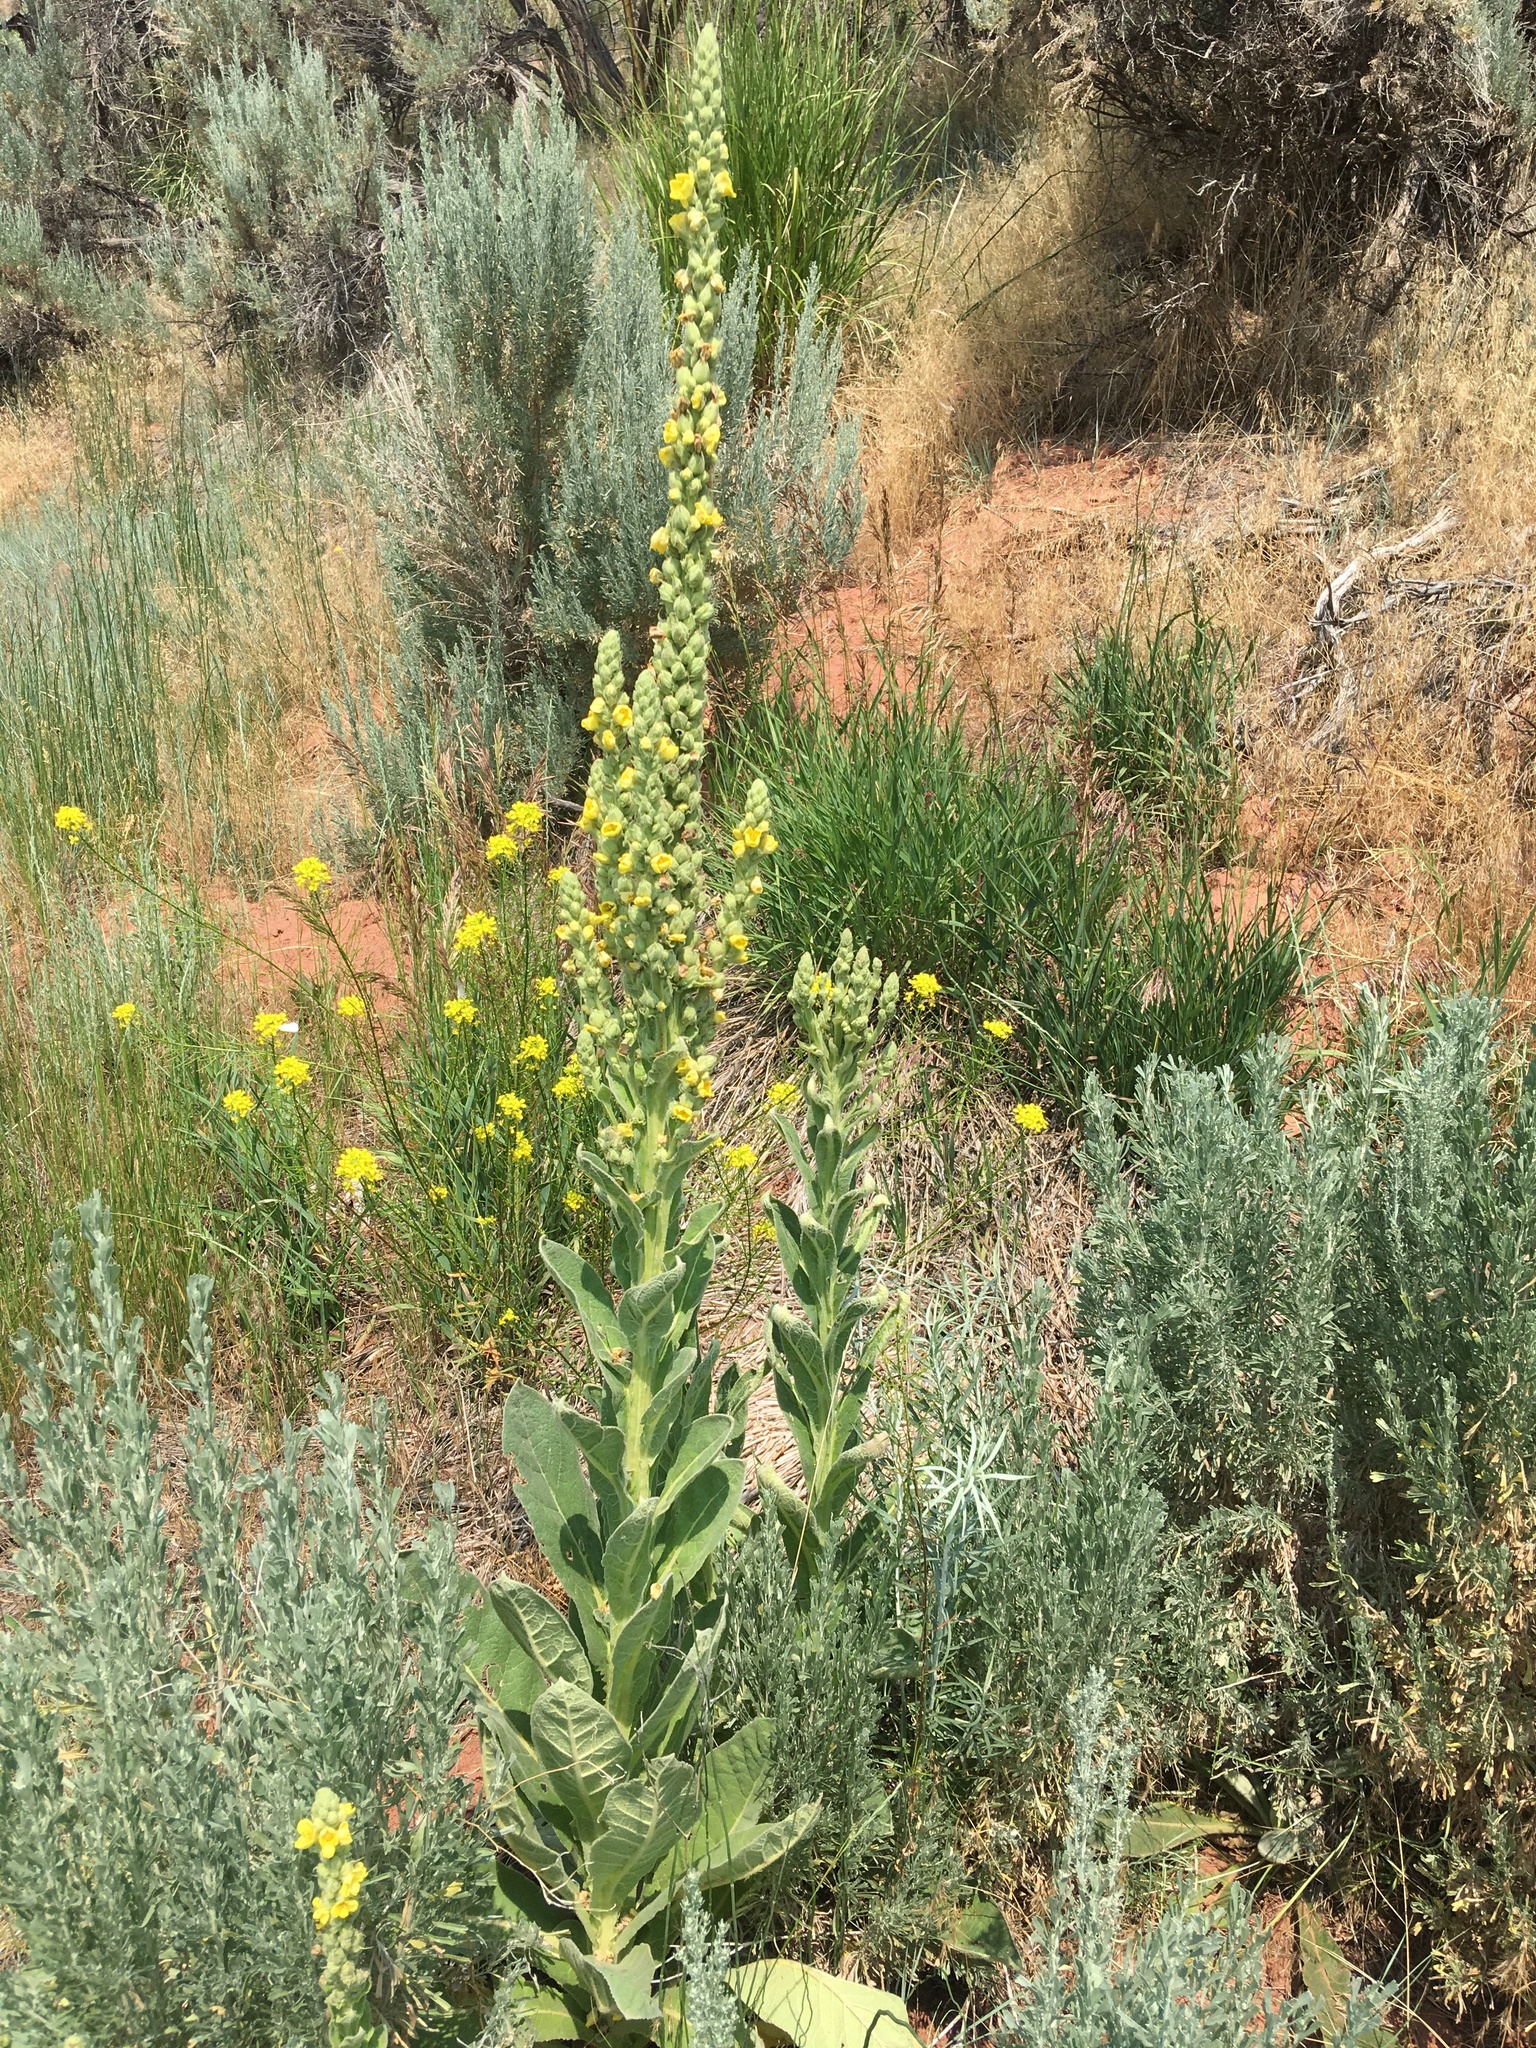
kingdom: Plantae
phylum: Tracheophyta
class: Magnoliopsida
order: Lamiales
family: Scrophulariaceae
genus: Verbascum
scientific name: Verbascum thapsus
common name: Common mullein
